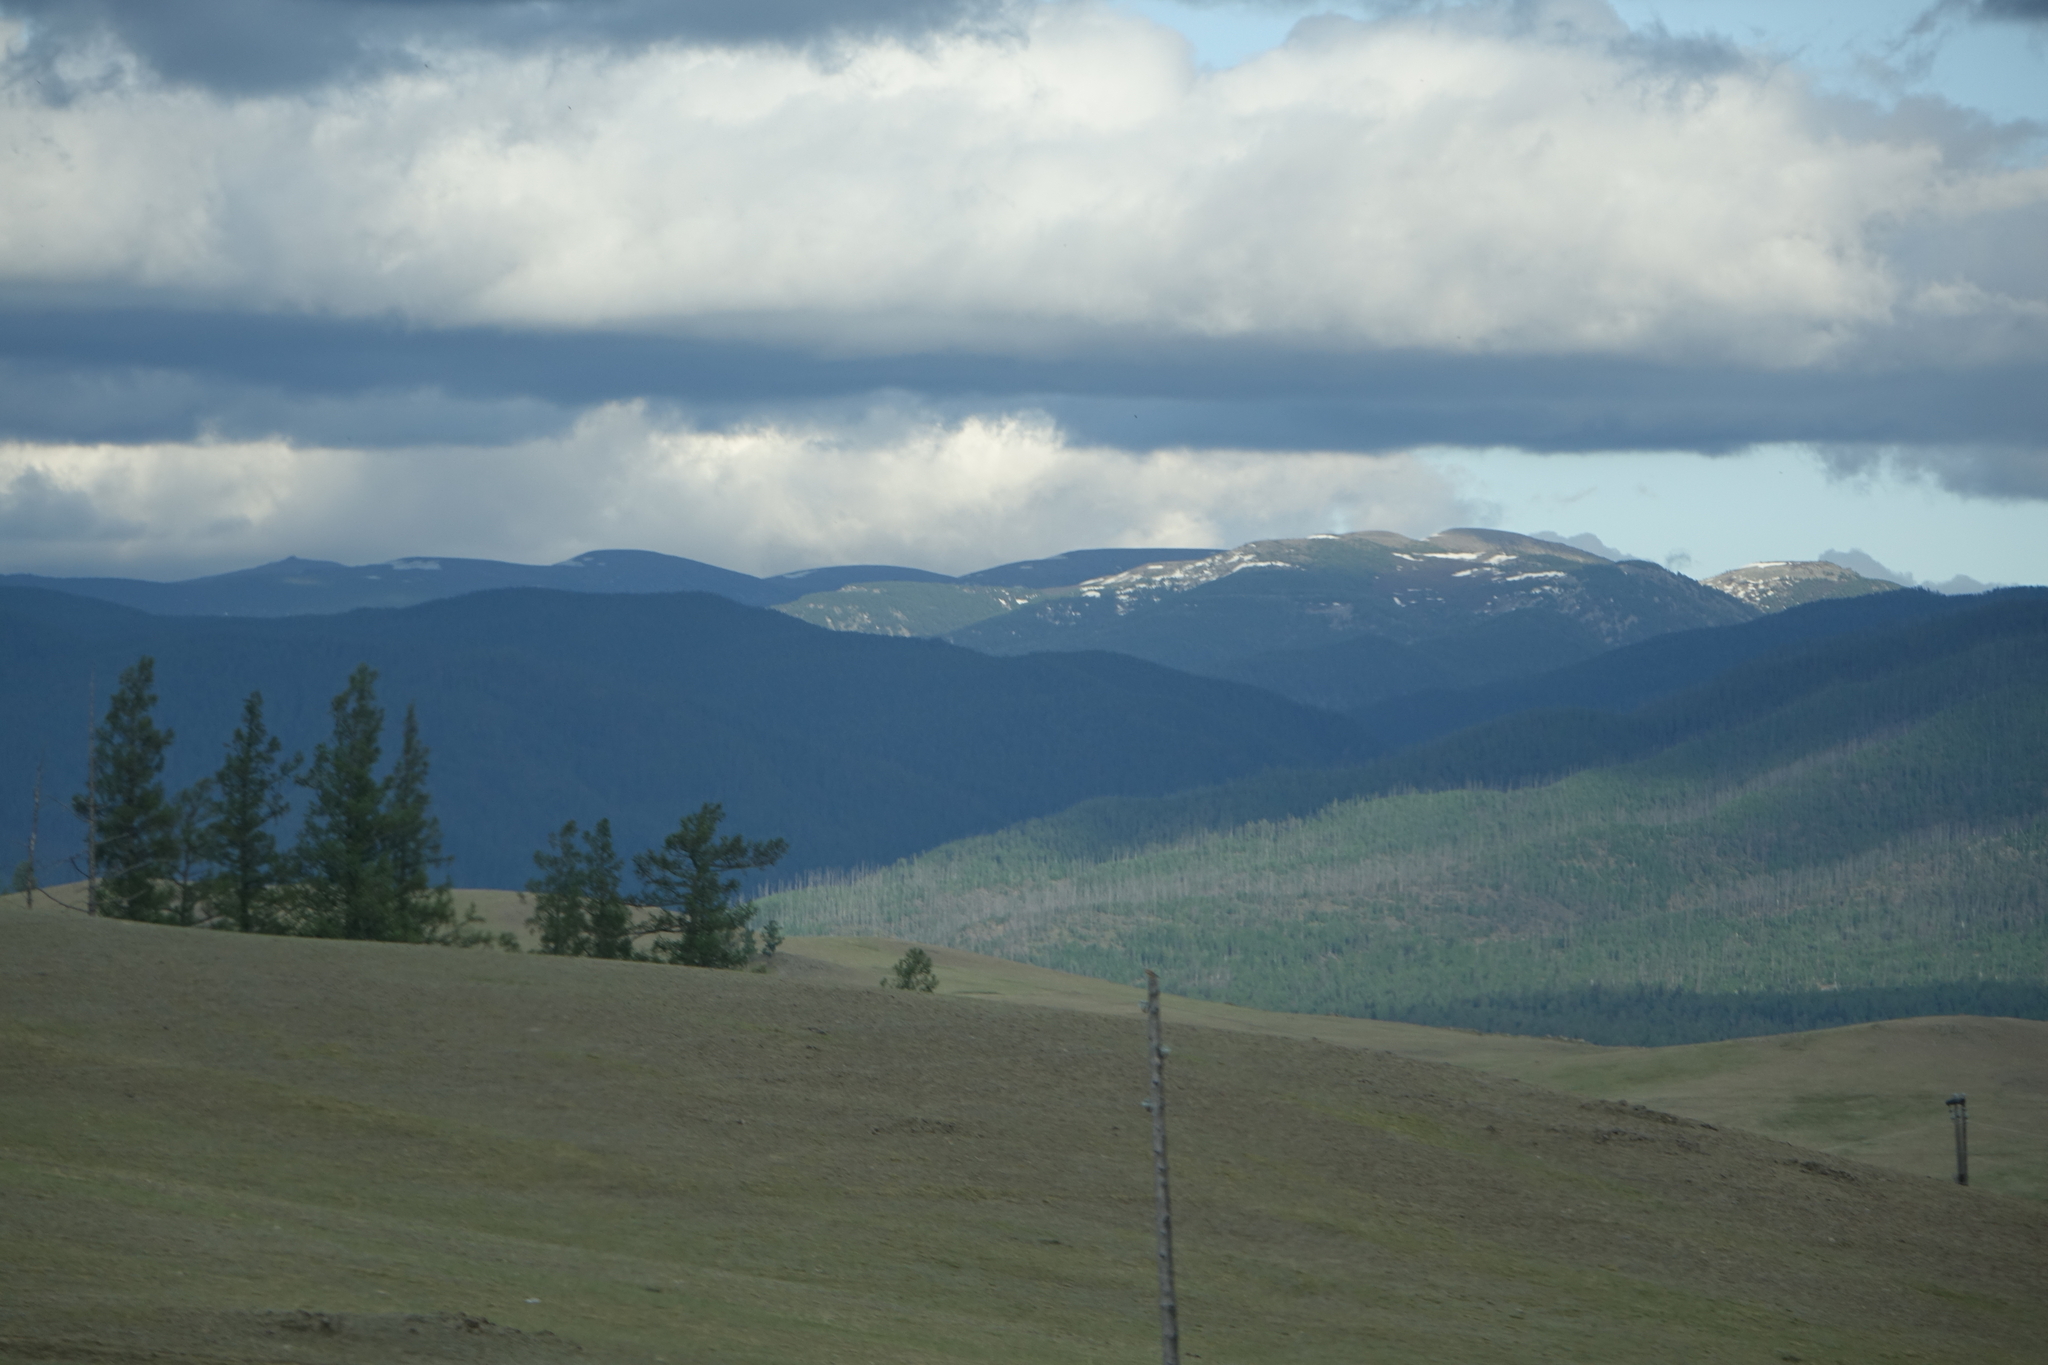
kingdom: Plantae
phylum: Tracheophyta
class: Pinopsida
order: Pinales
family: Pinaceae
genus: Larix
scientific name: Larix sibirica
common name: Siberian larch
